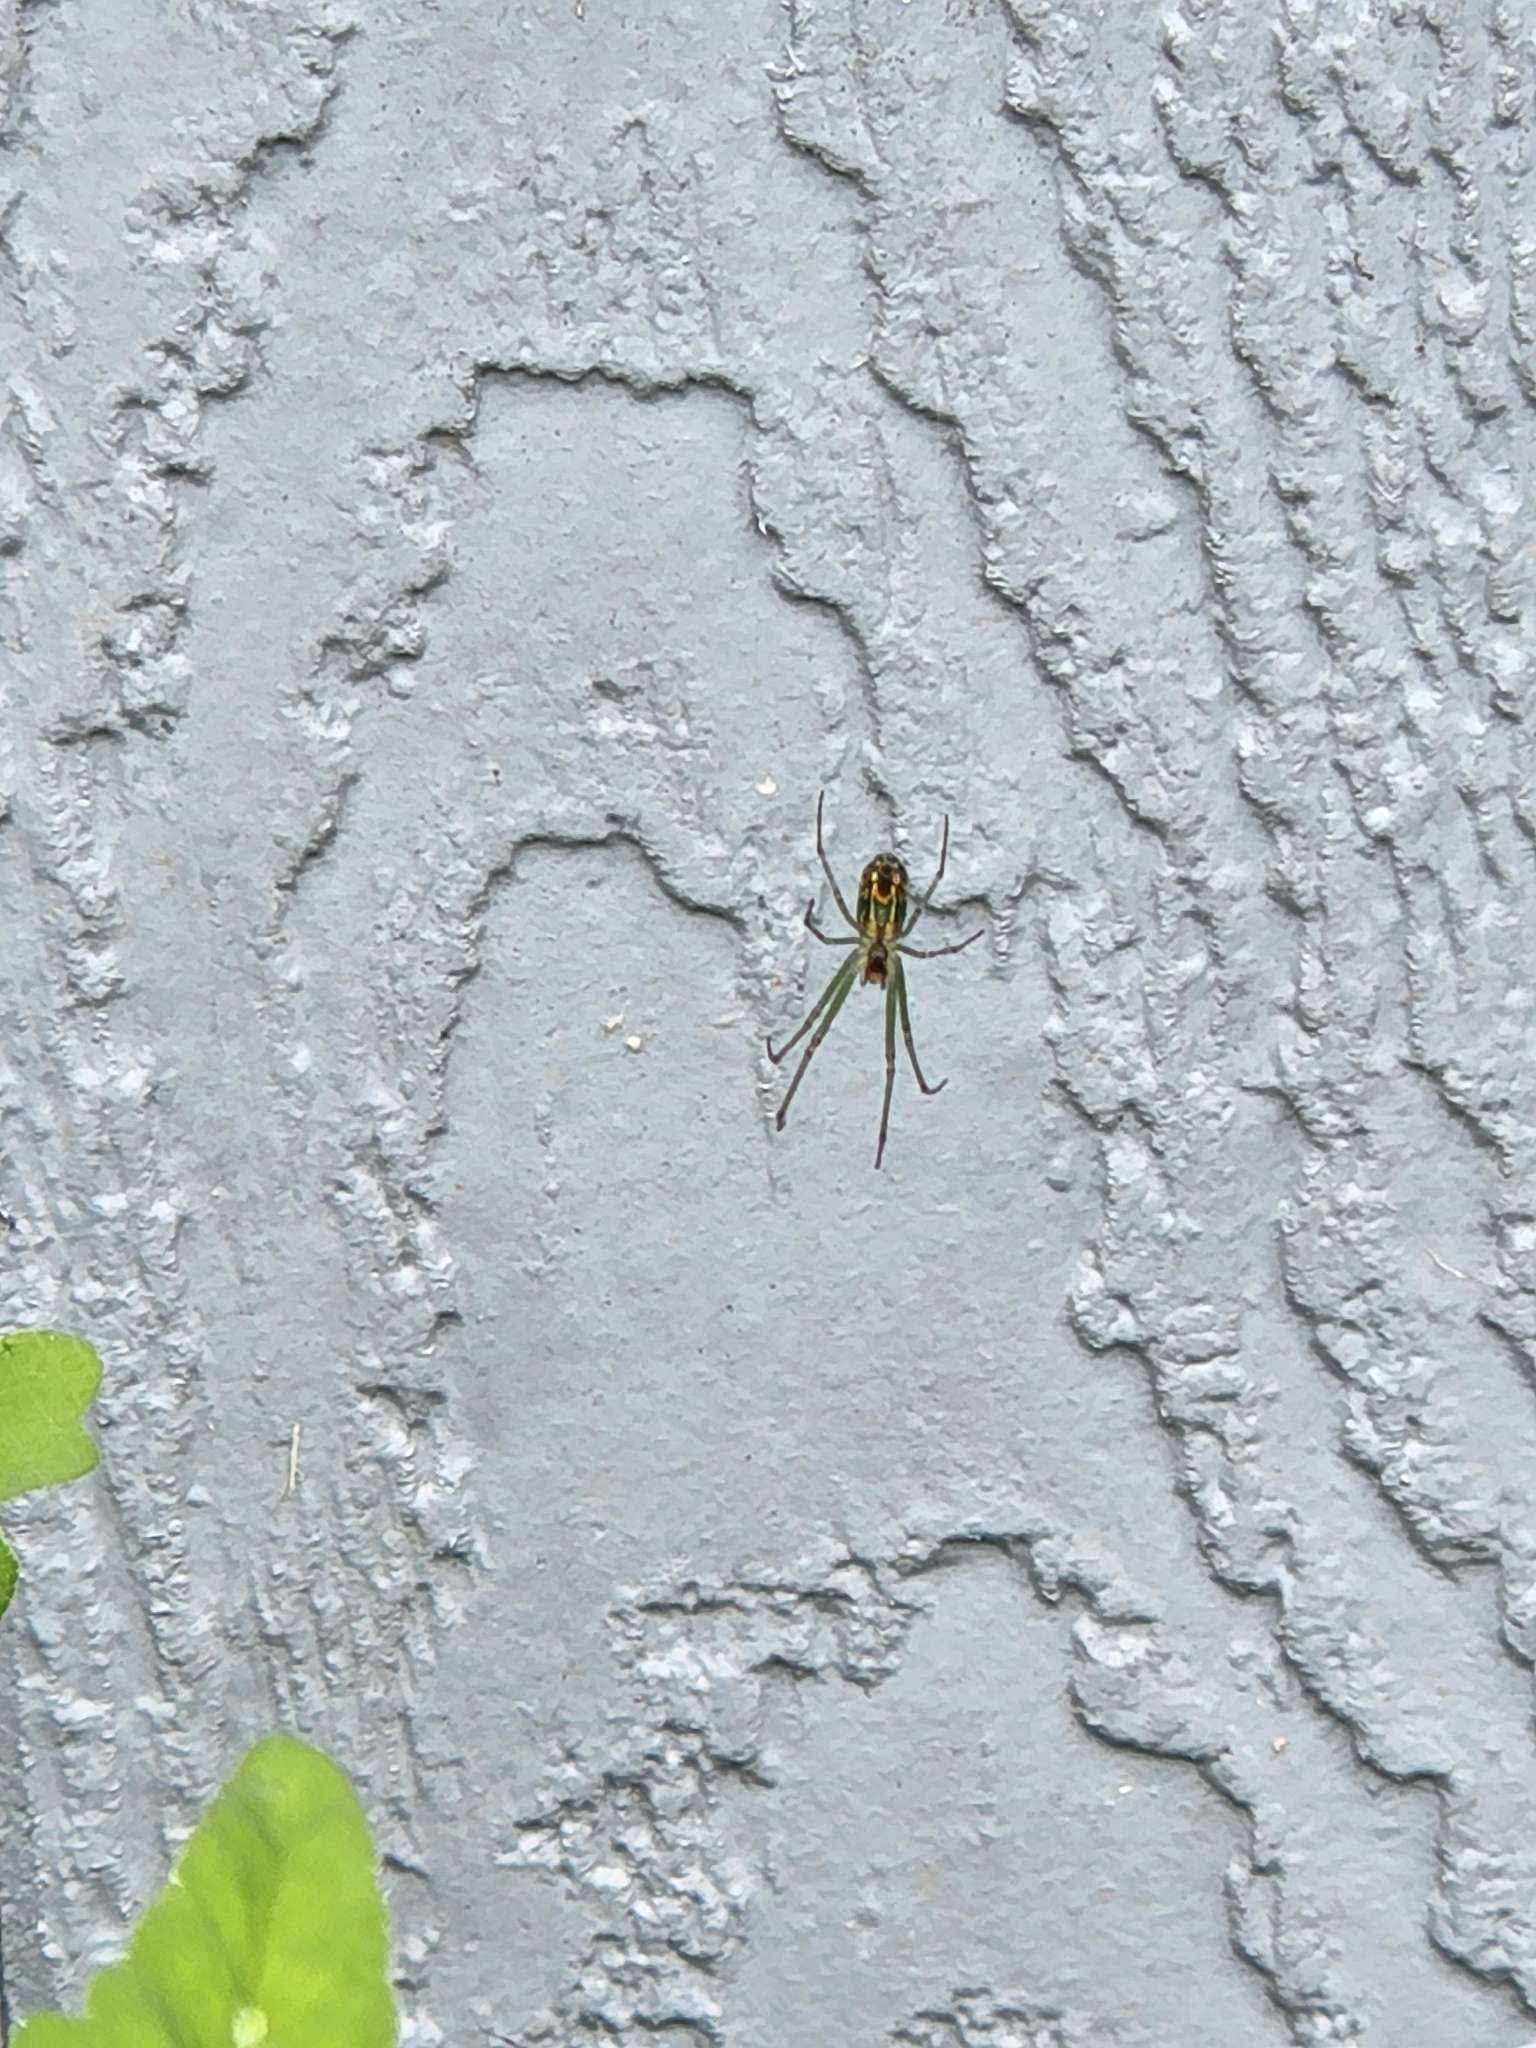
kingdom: Animalia
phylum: Arthropoda
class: Arachnida
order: Araneae
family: Tetragnathidae
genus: Leucauge
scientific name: Leucauge venusta
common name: Longjawed orb weavers
